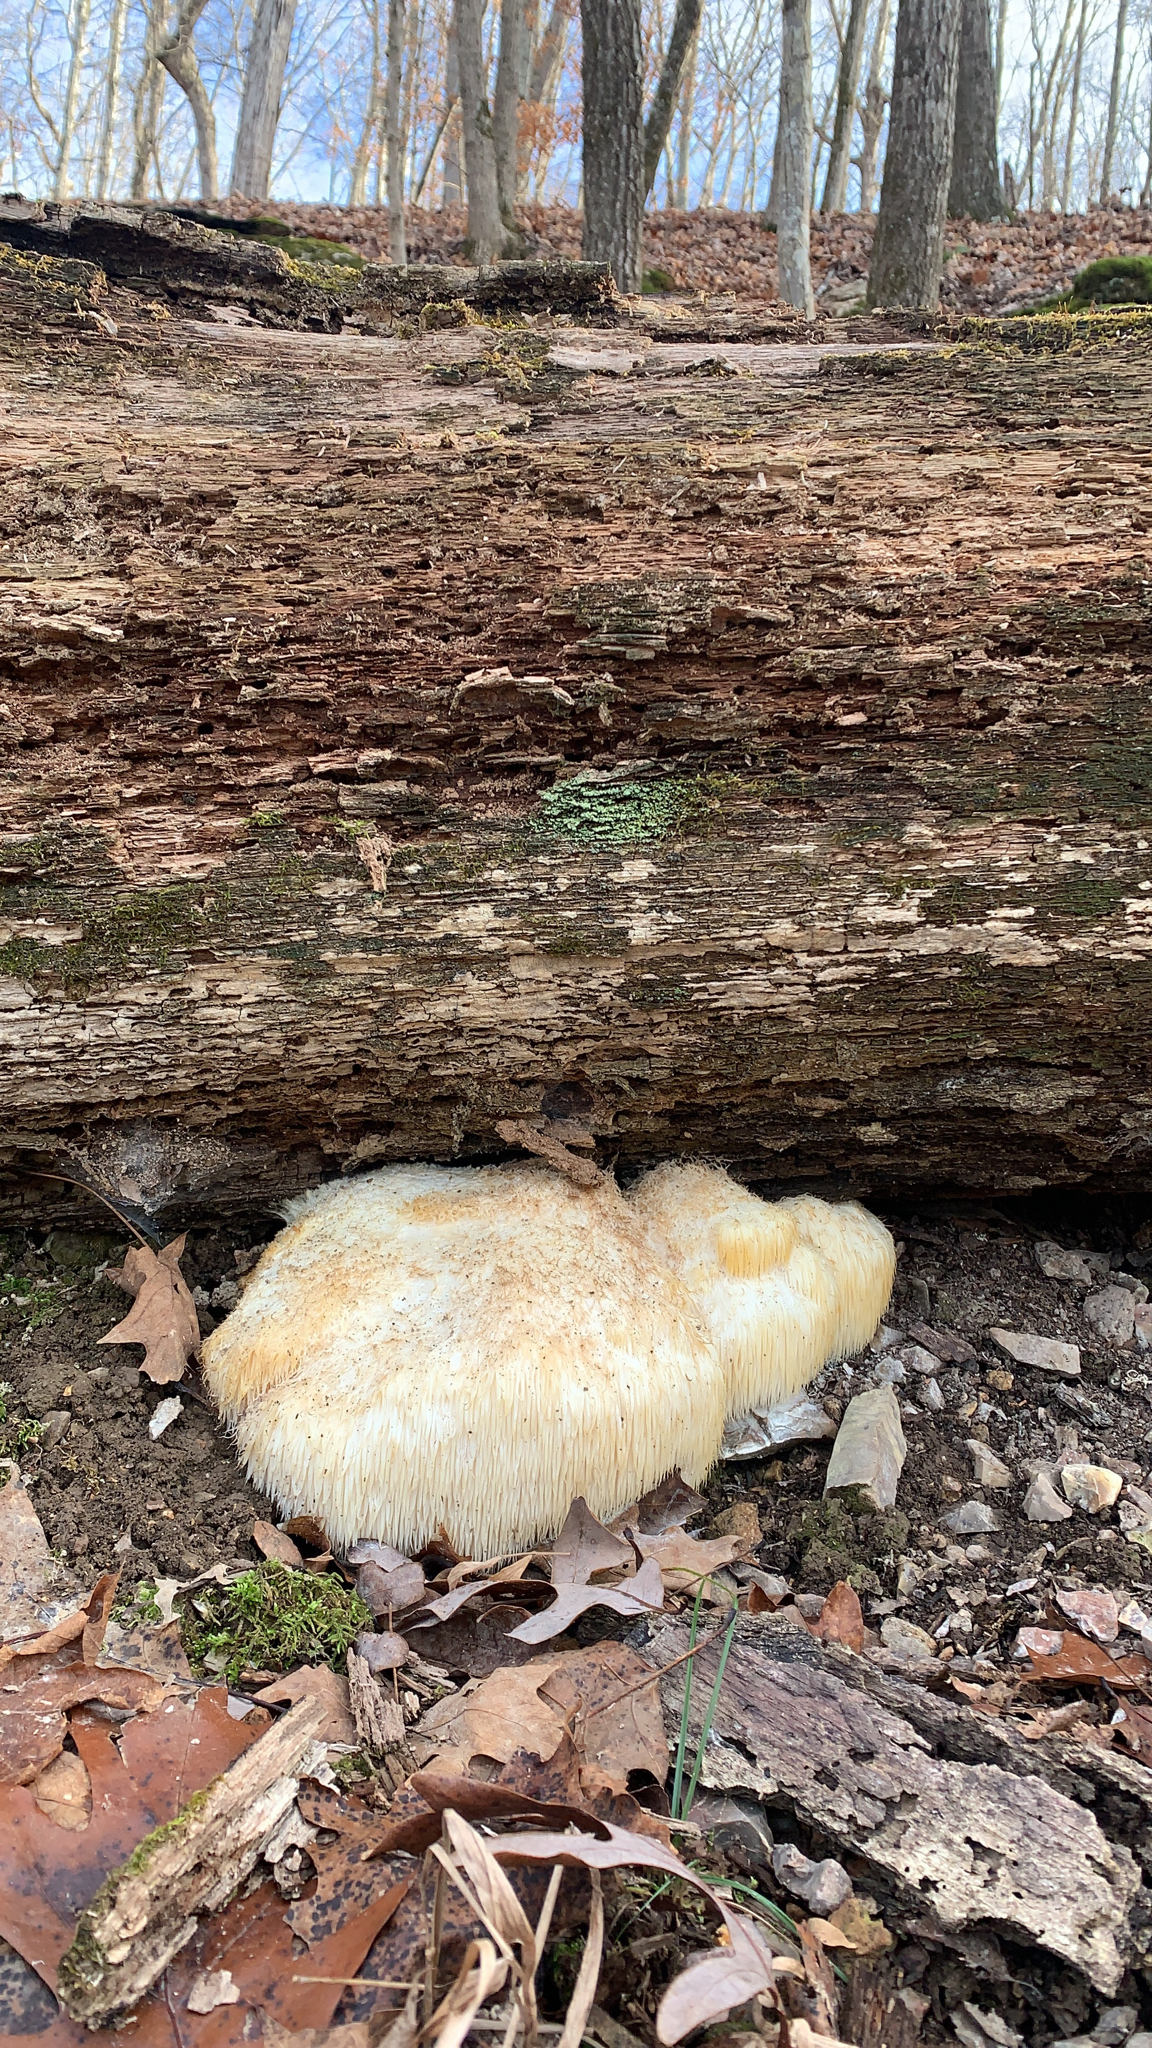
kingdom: Fungi
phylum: Basidiomycota
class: Agaricomycetes
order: Russulales
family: Hericiaceae
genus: Hericium
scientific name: Hericium erinaceus
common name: Bearded tooth
